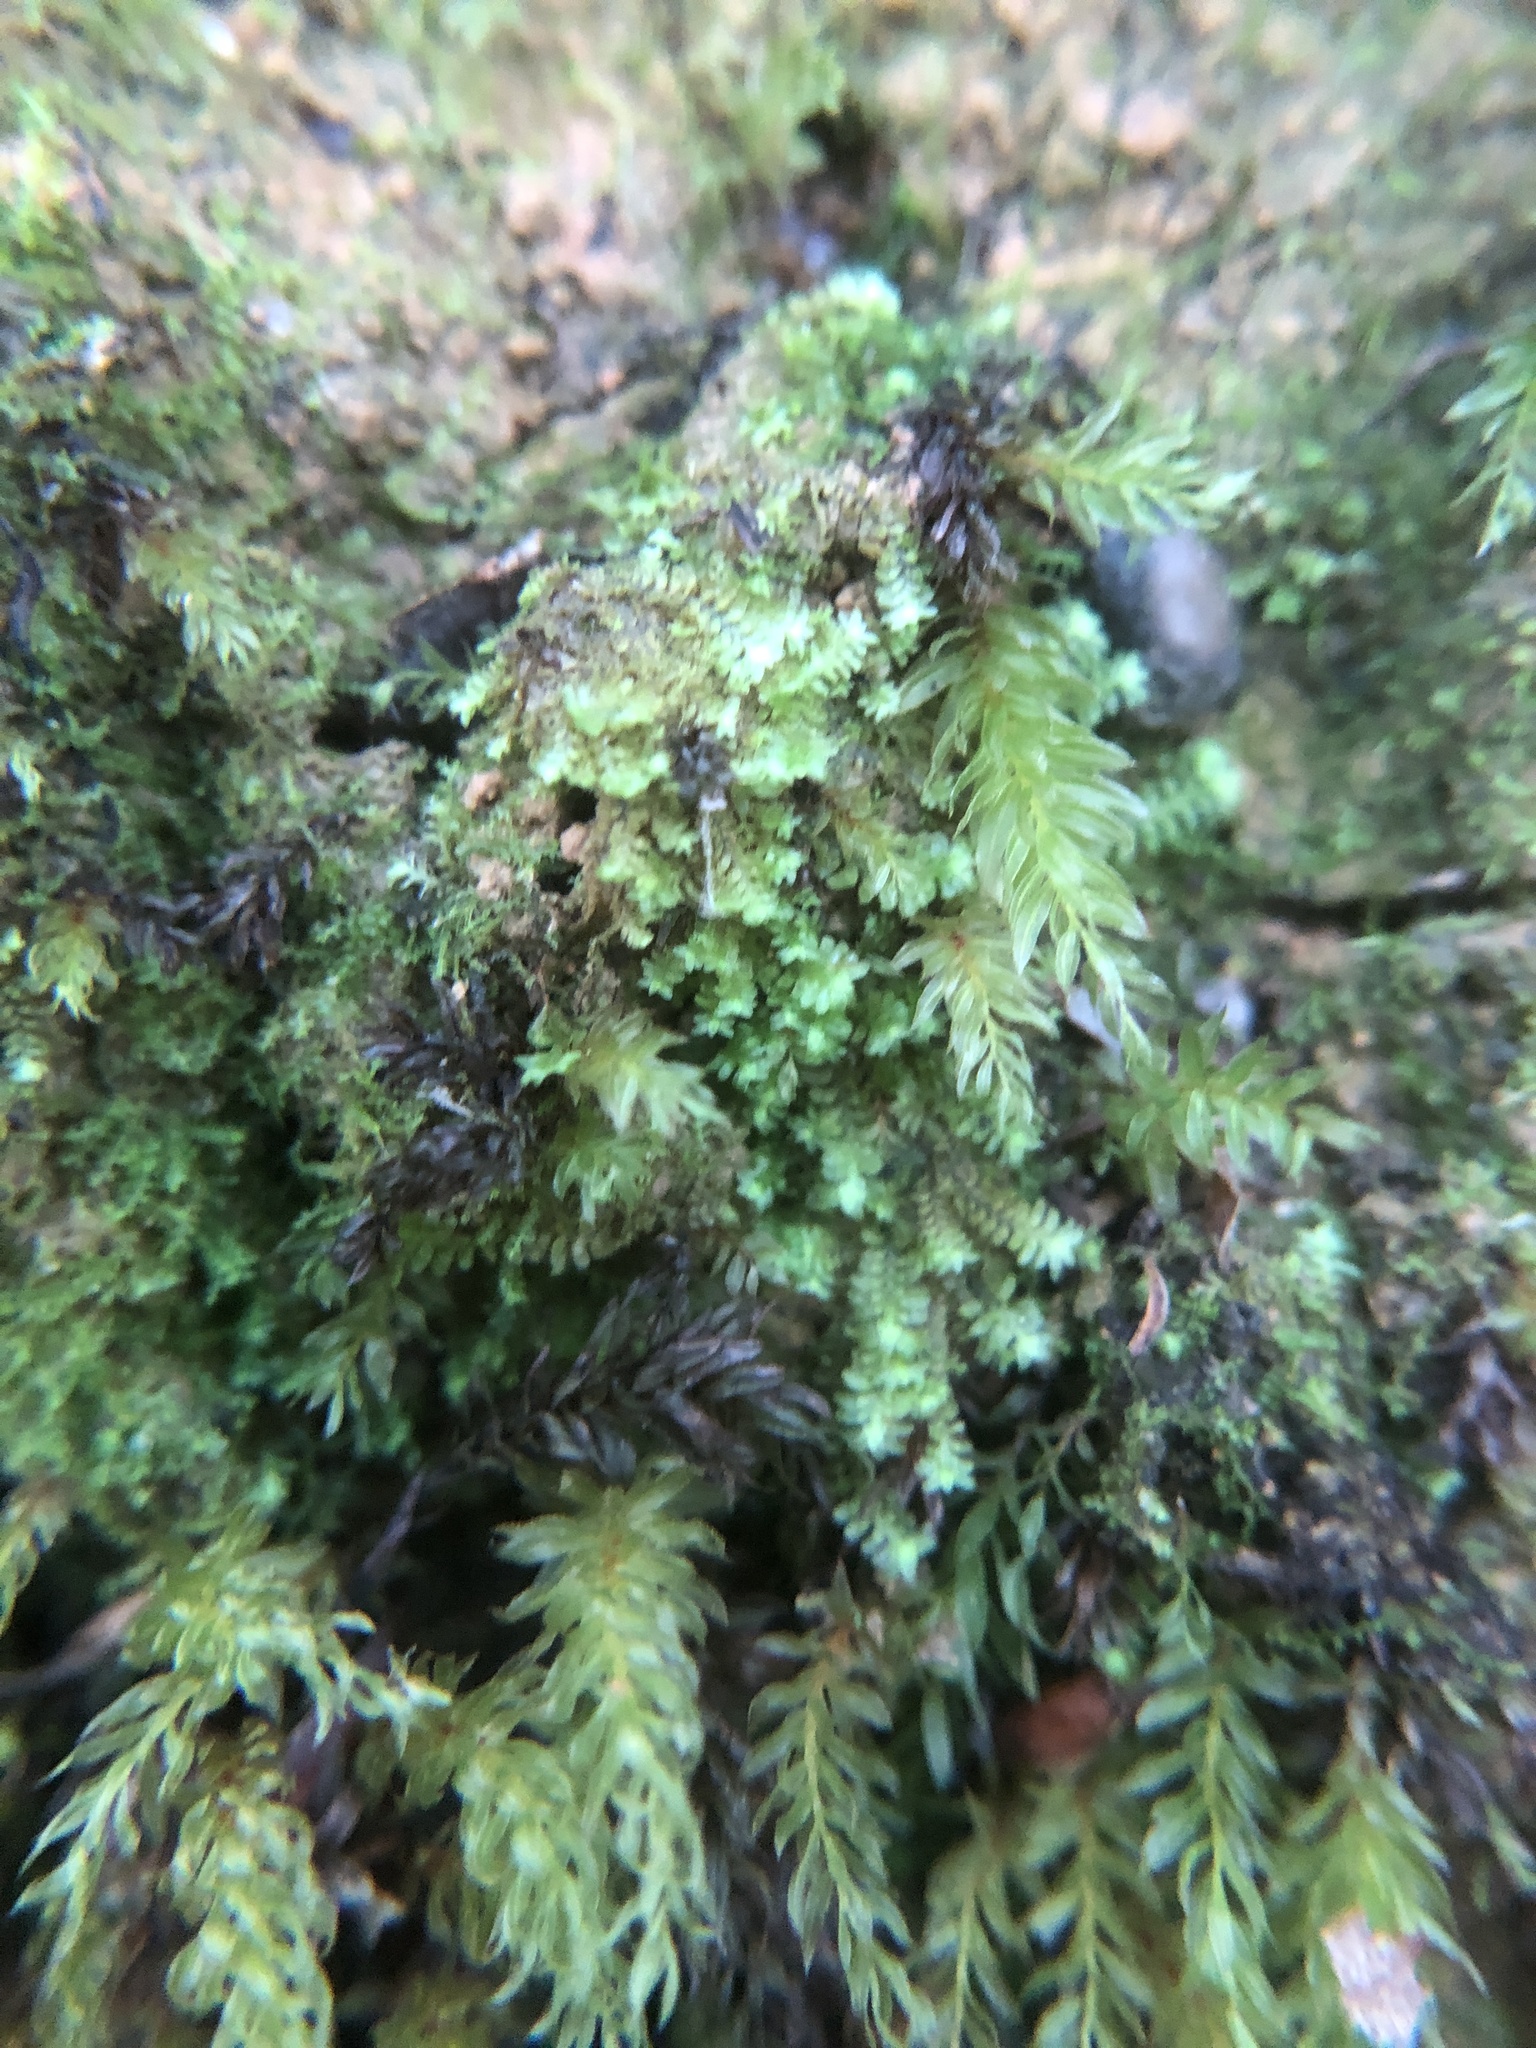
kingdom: Plantae
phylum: Marchantiophyta
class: Jungermanniopsida
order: Jungermanniales
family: Scapaniaceae
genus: Diplophyllum
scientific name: Diplophyllum albicans
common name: White earwort
